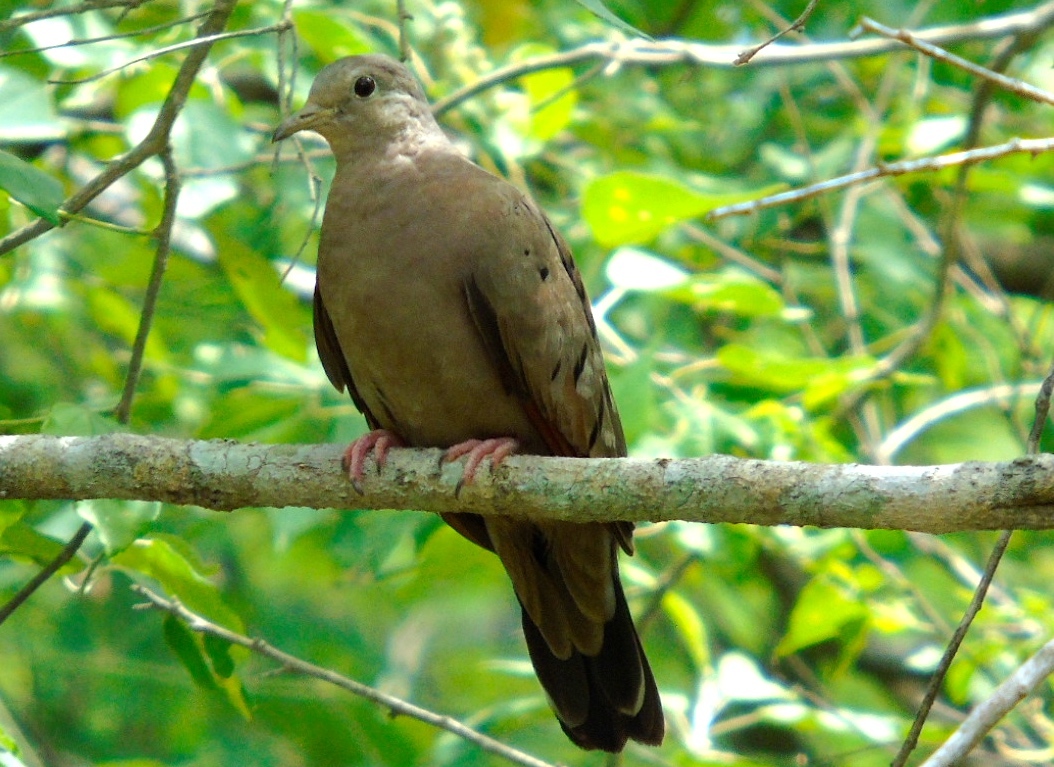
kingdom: Animalia
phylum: Chordata
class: Aves
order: Columbiformes
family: Columbidae
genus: Columbina
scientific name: Columbina talpacoti
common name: Ruddy ground dove
